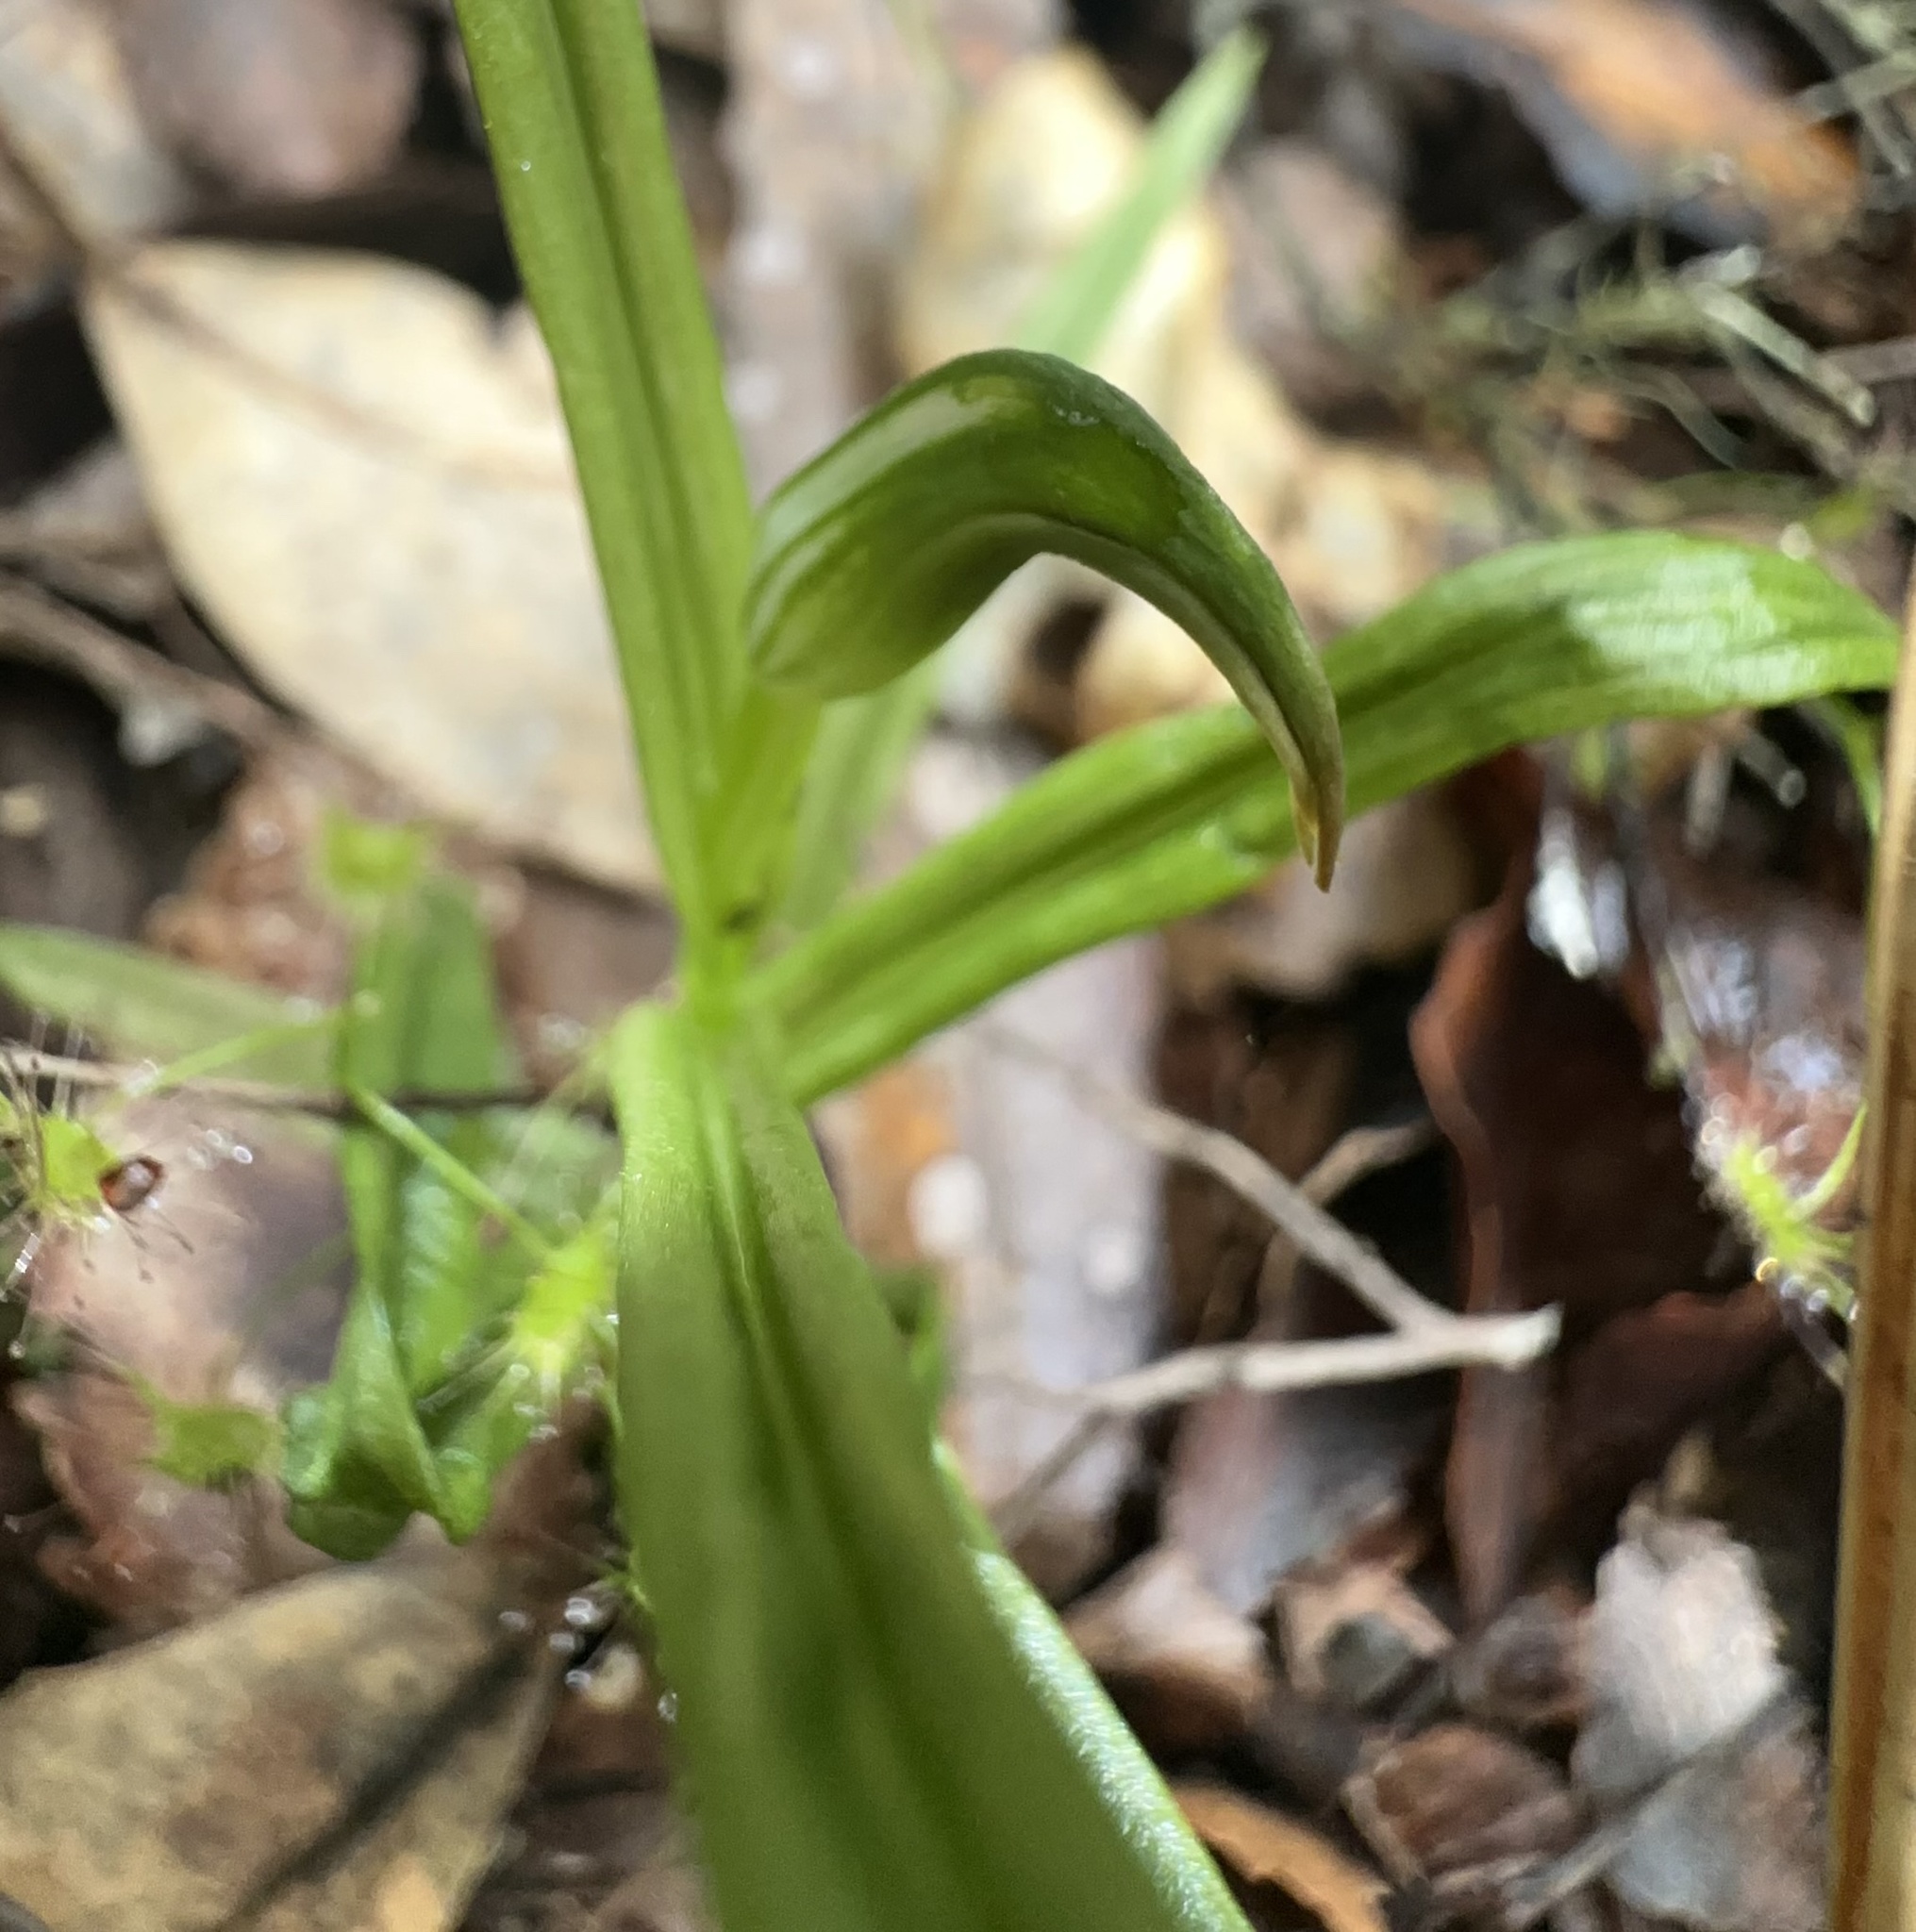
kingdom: Plantae
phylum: Tracheophyta
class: Liliopsida
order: Asparagales
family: Orchidaceae
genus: Pterostylis
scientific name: Pterostylis graminea
